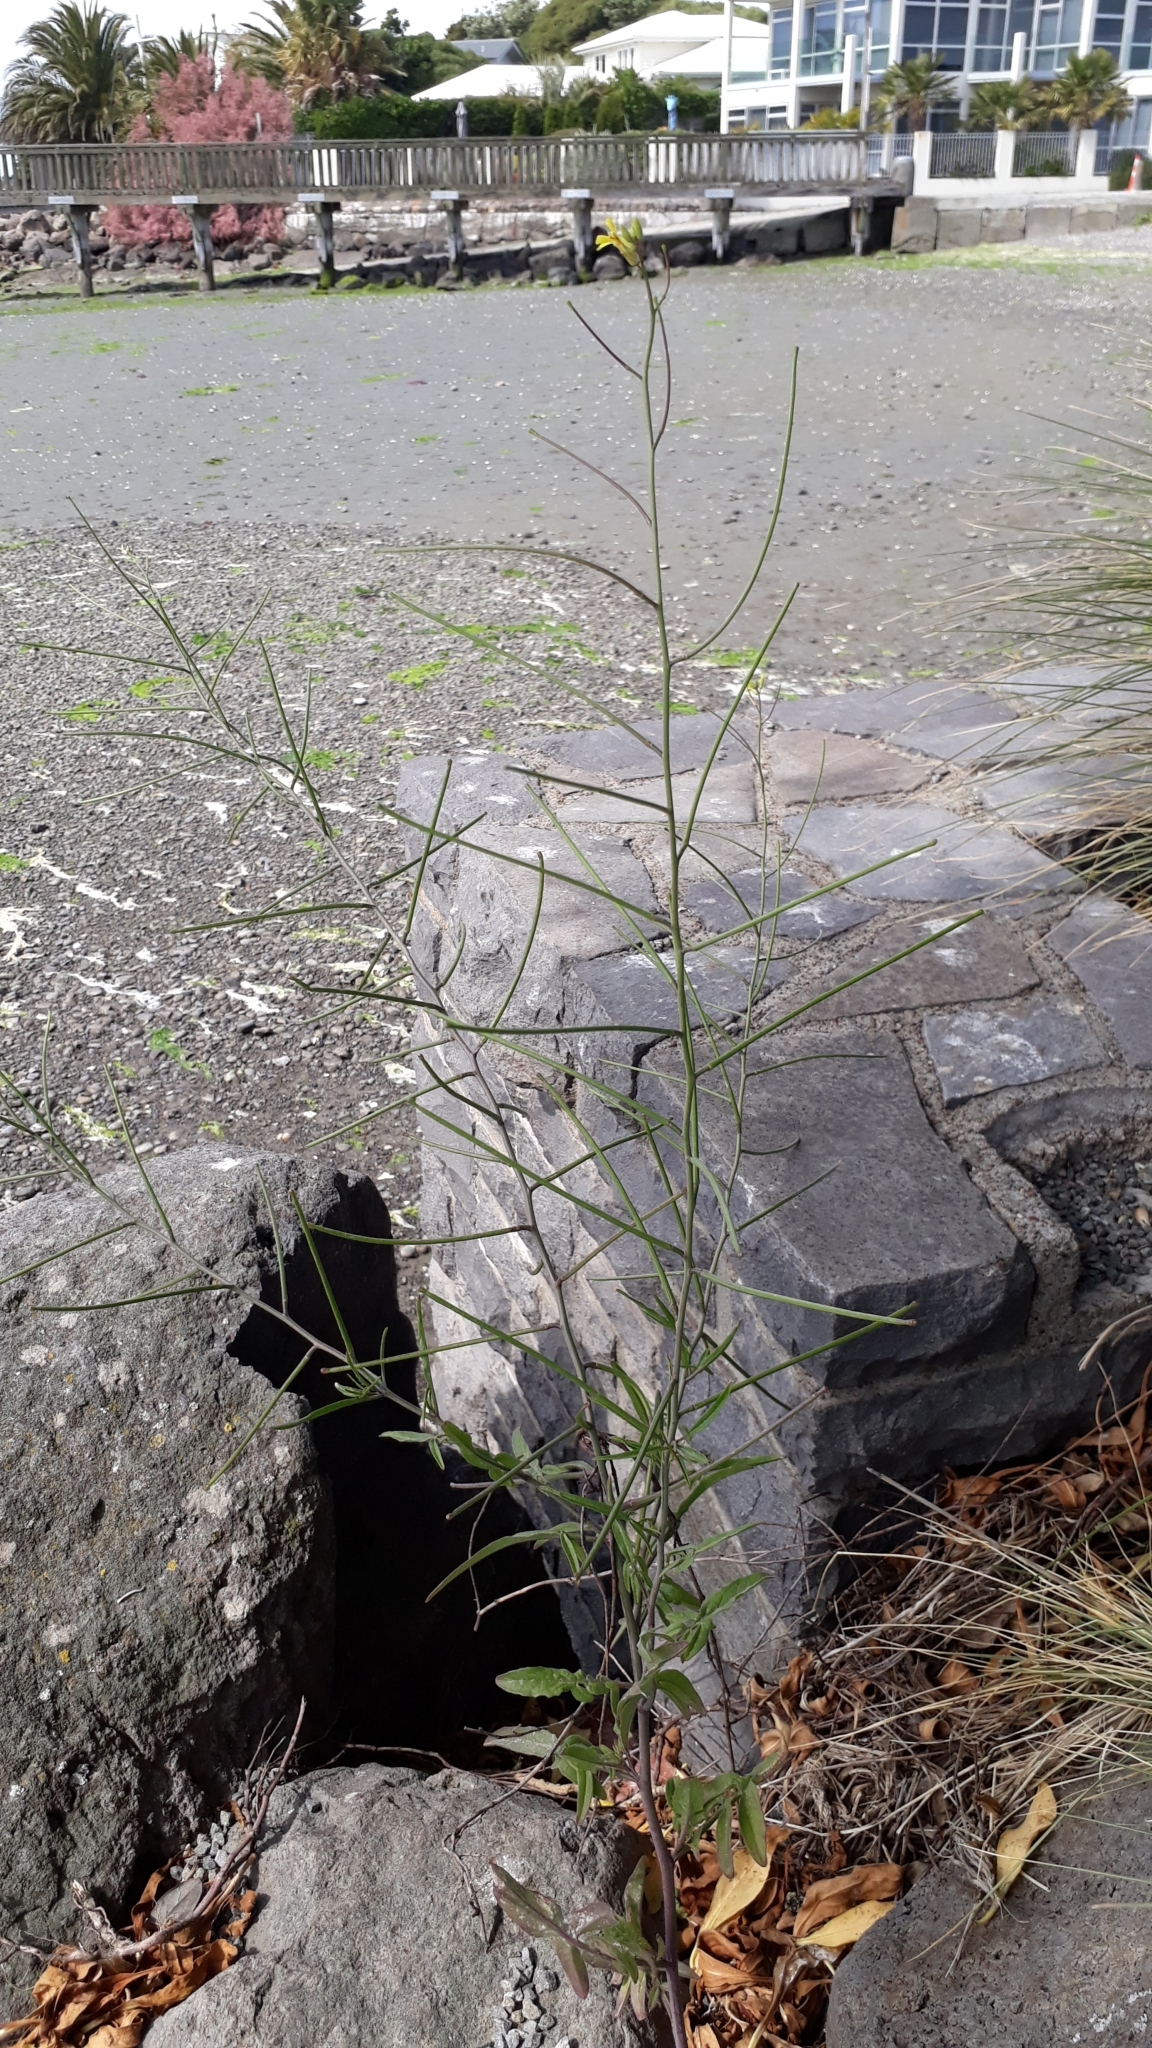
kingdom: Plantae
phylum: Tracheophyta
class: Magnoliopsida
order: Brassicales
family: Brassicaceae
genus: Sisymbrium
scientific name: Sisymbrium orientale
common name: Eastern rocket
